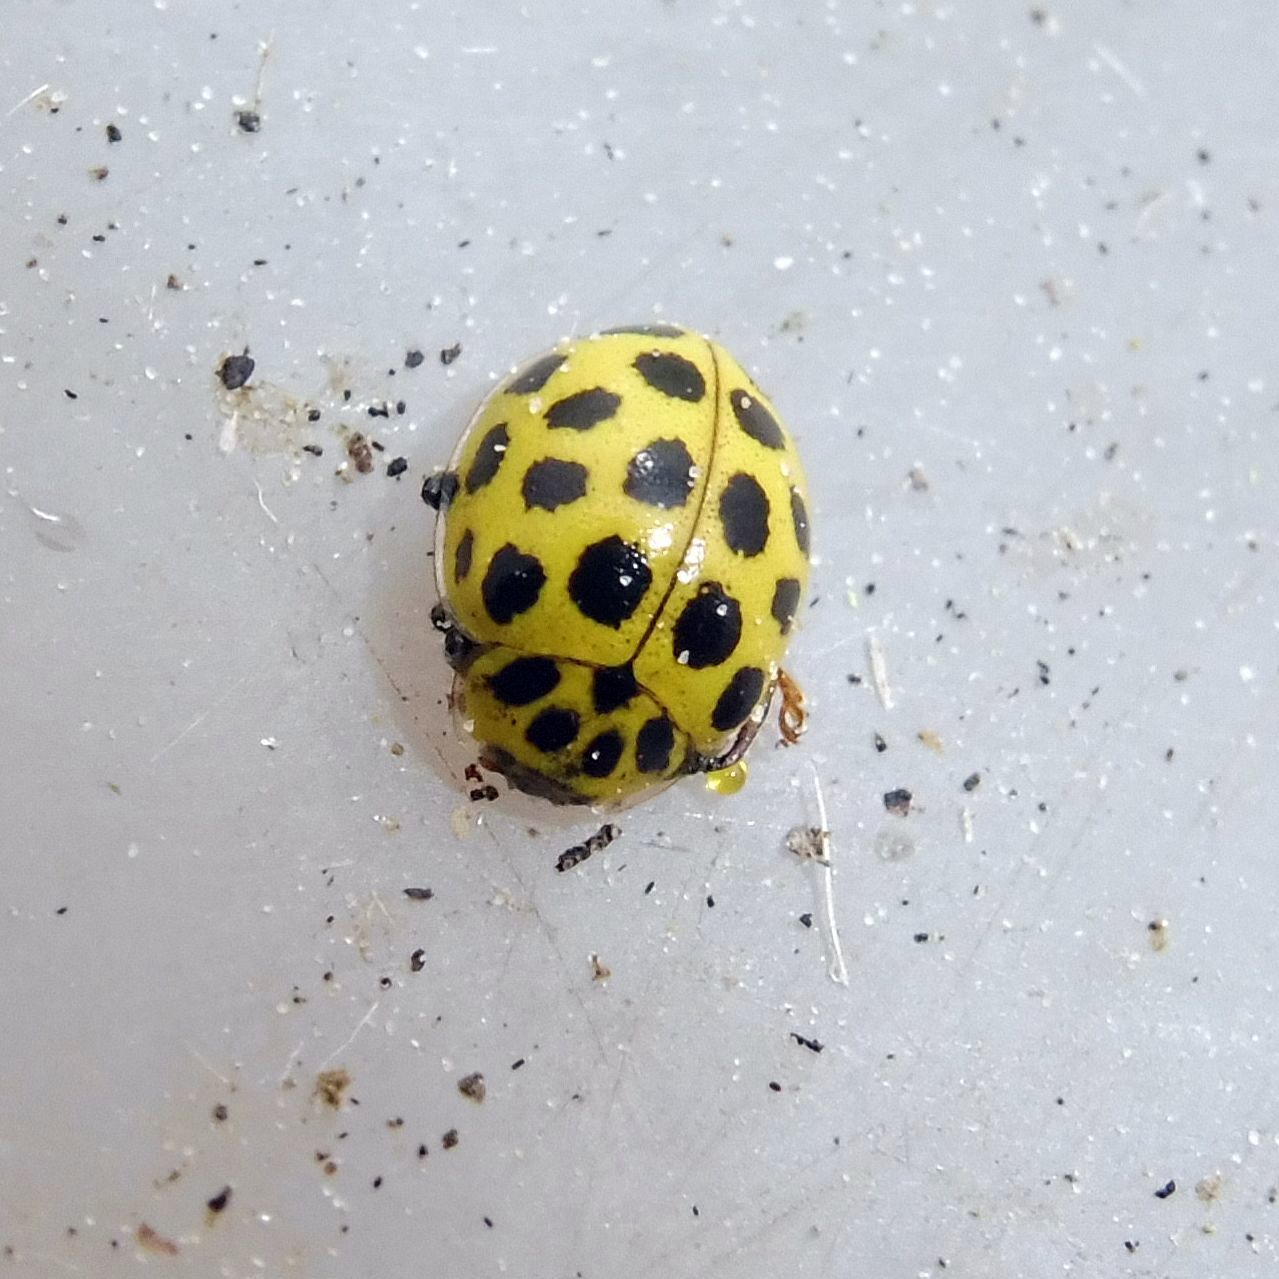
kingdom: Animalia
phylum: Arthropoda
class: Insecta
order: Coleoptera
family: Coccinellidae
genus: Psyllobora
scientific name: Psyllobora vigintiduopunctata
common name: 22-spot ladybird
